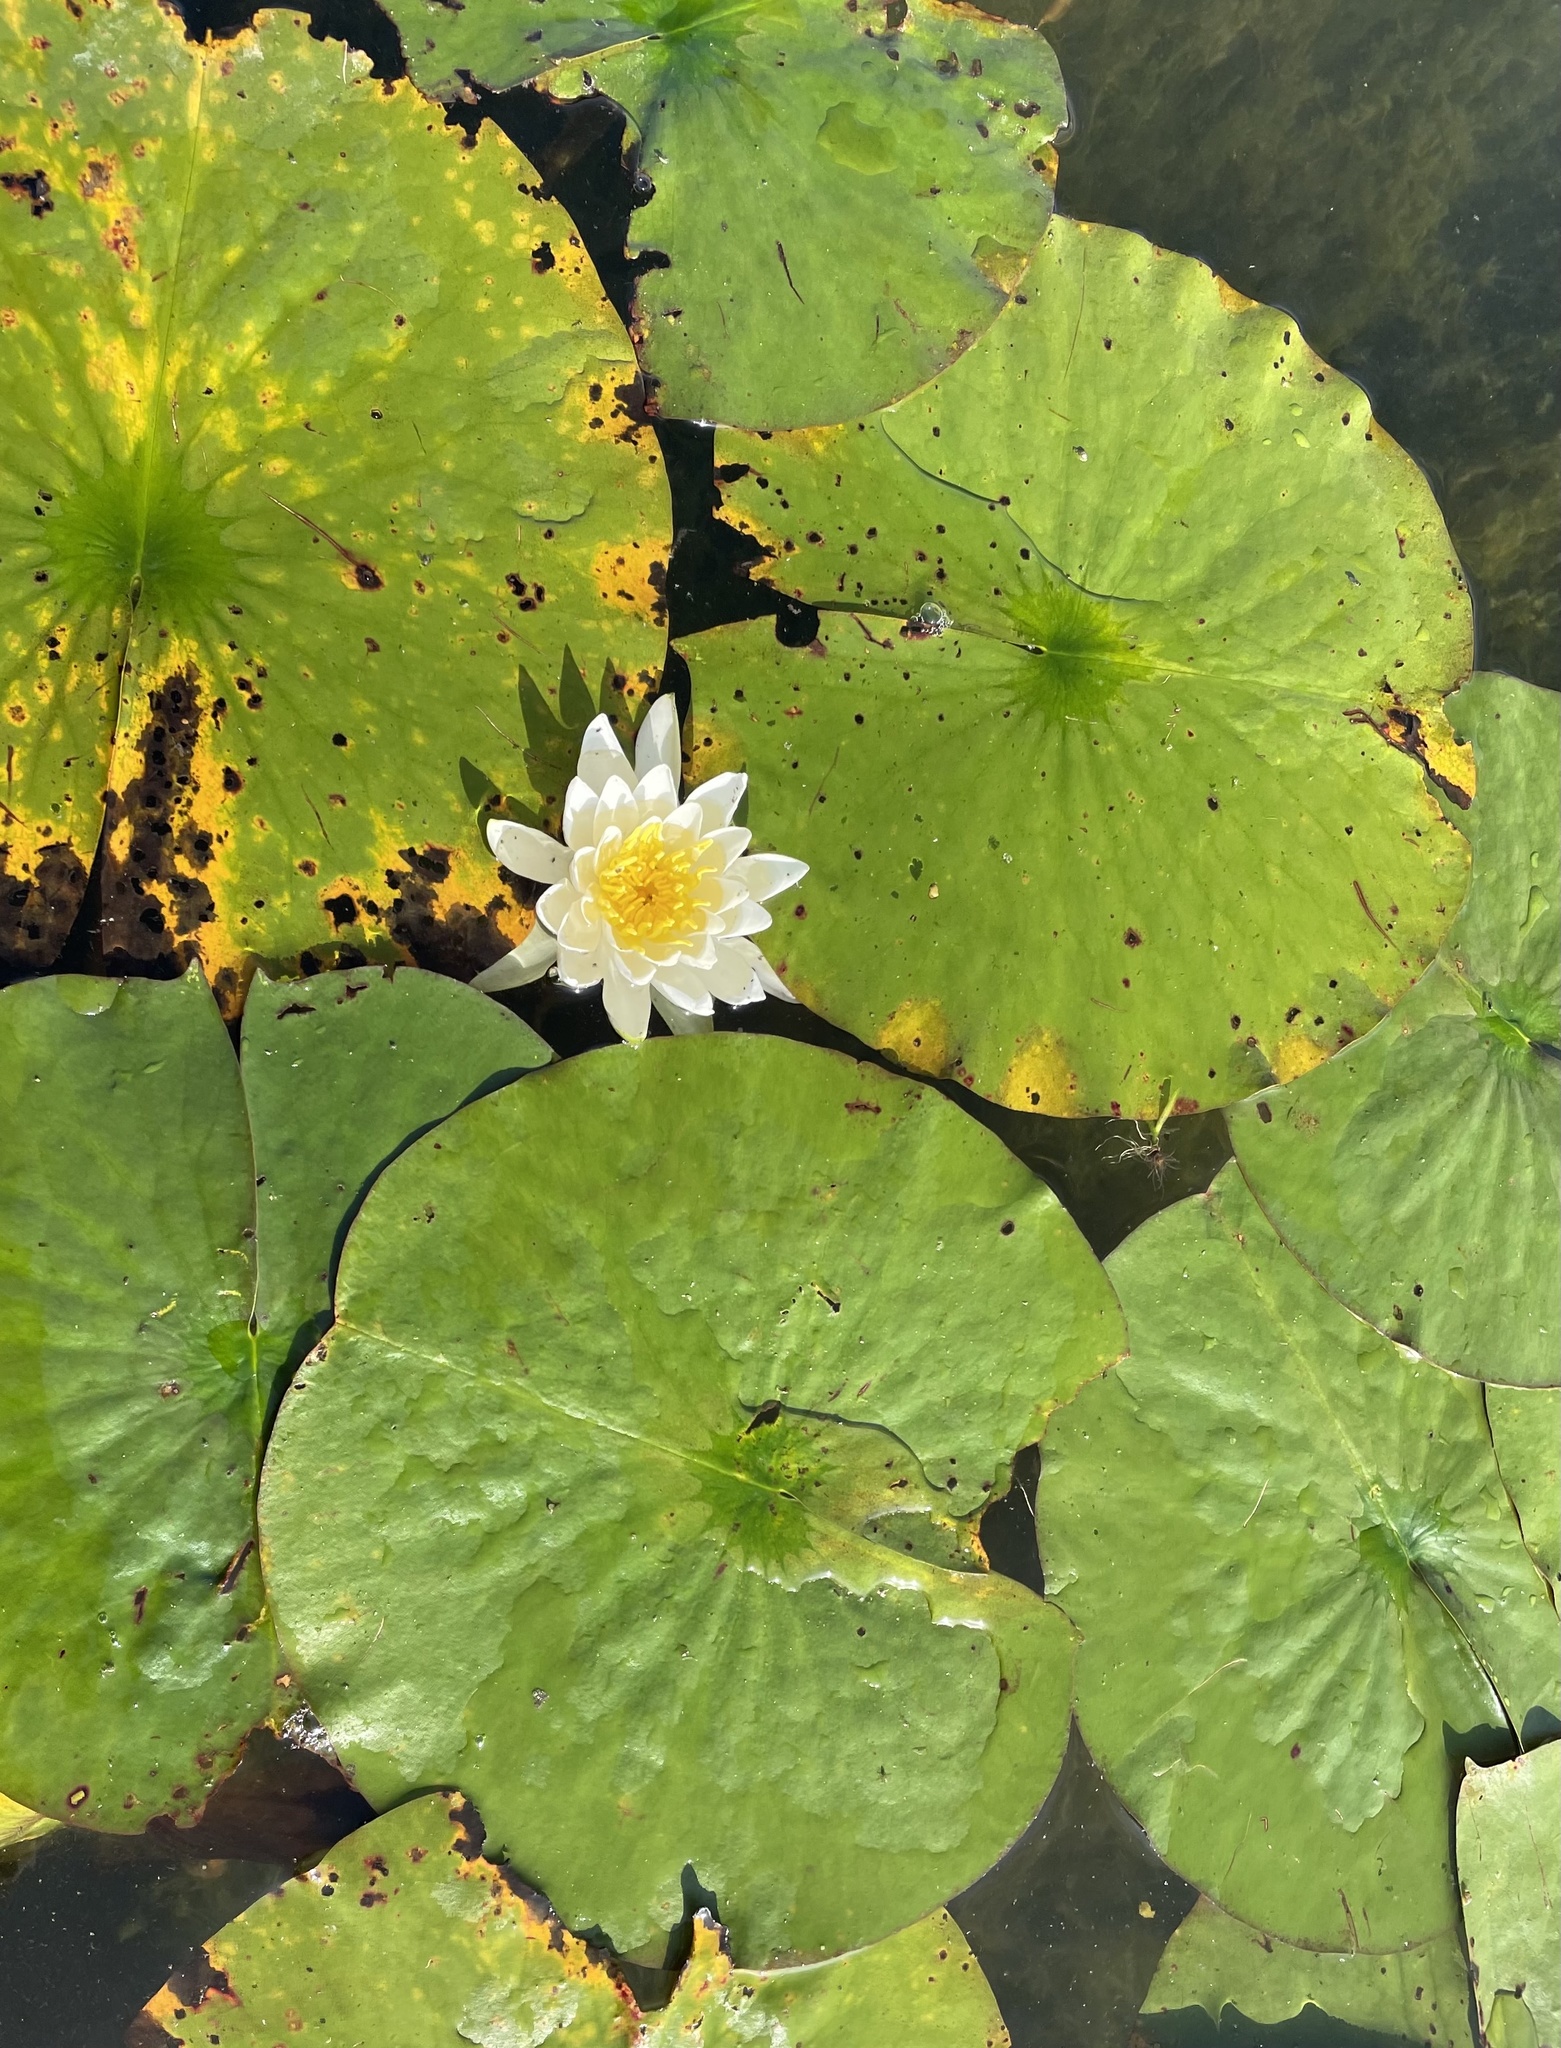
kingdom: Plantae
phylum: Tracheophyta
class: Magnoliopsida
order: Nymphaeales
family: Nymphaeaceae
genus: Nymphaea
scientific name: Nymphaea odorata
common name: Fragrant water-lily
